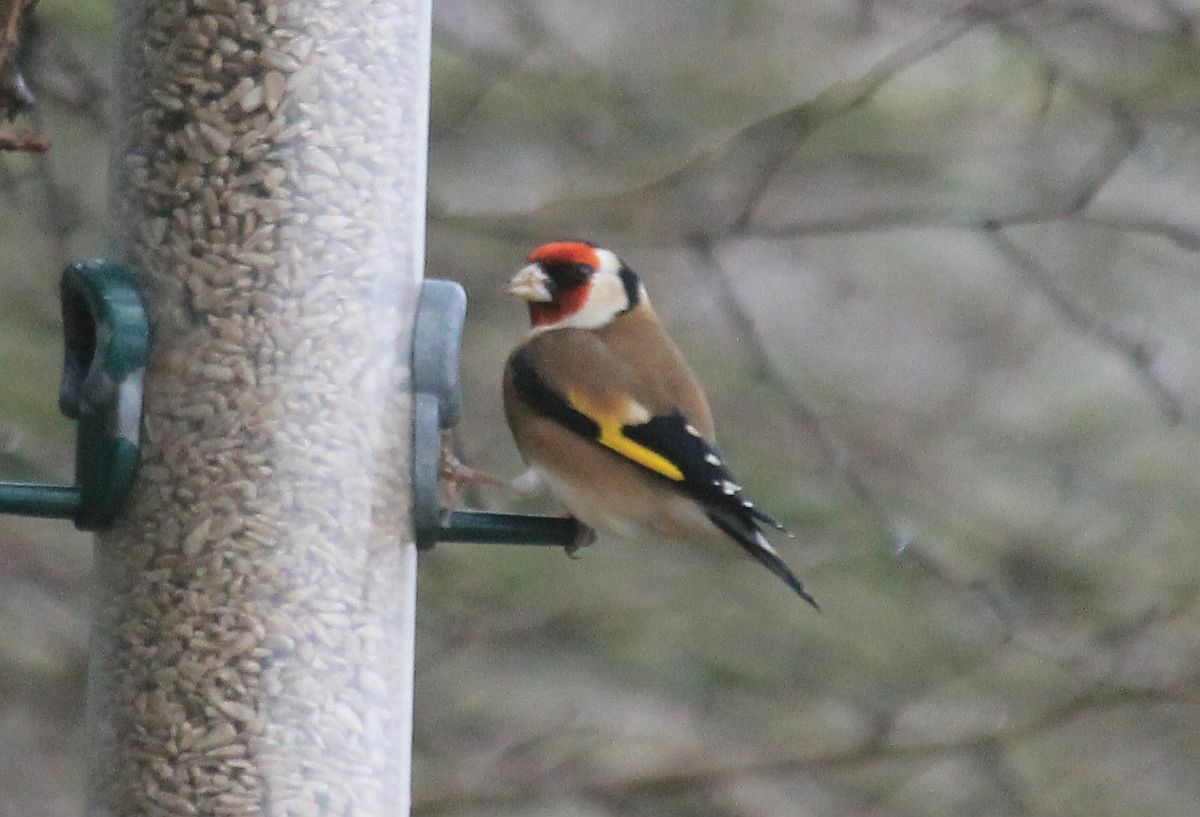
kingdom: Animalia
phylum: Chordata
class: Aves
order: Passeriformes
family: Fringillidae
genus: Carduelis
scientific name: Carduelis carduelis
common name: European goldfinch
